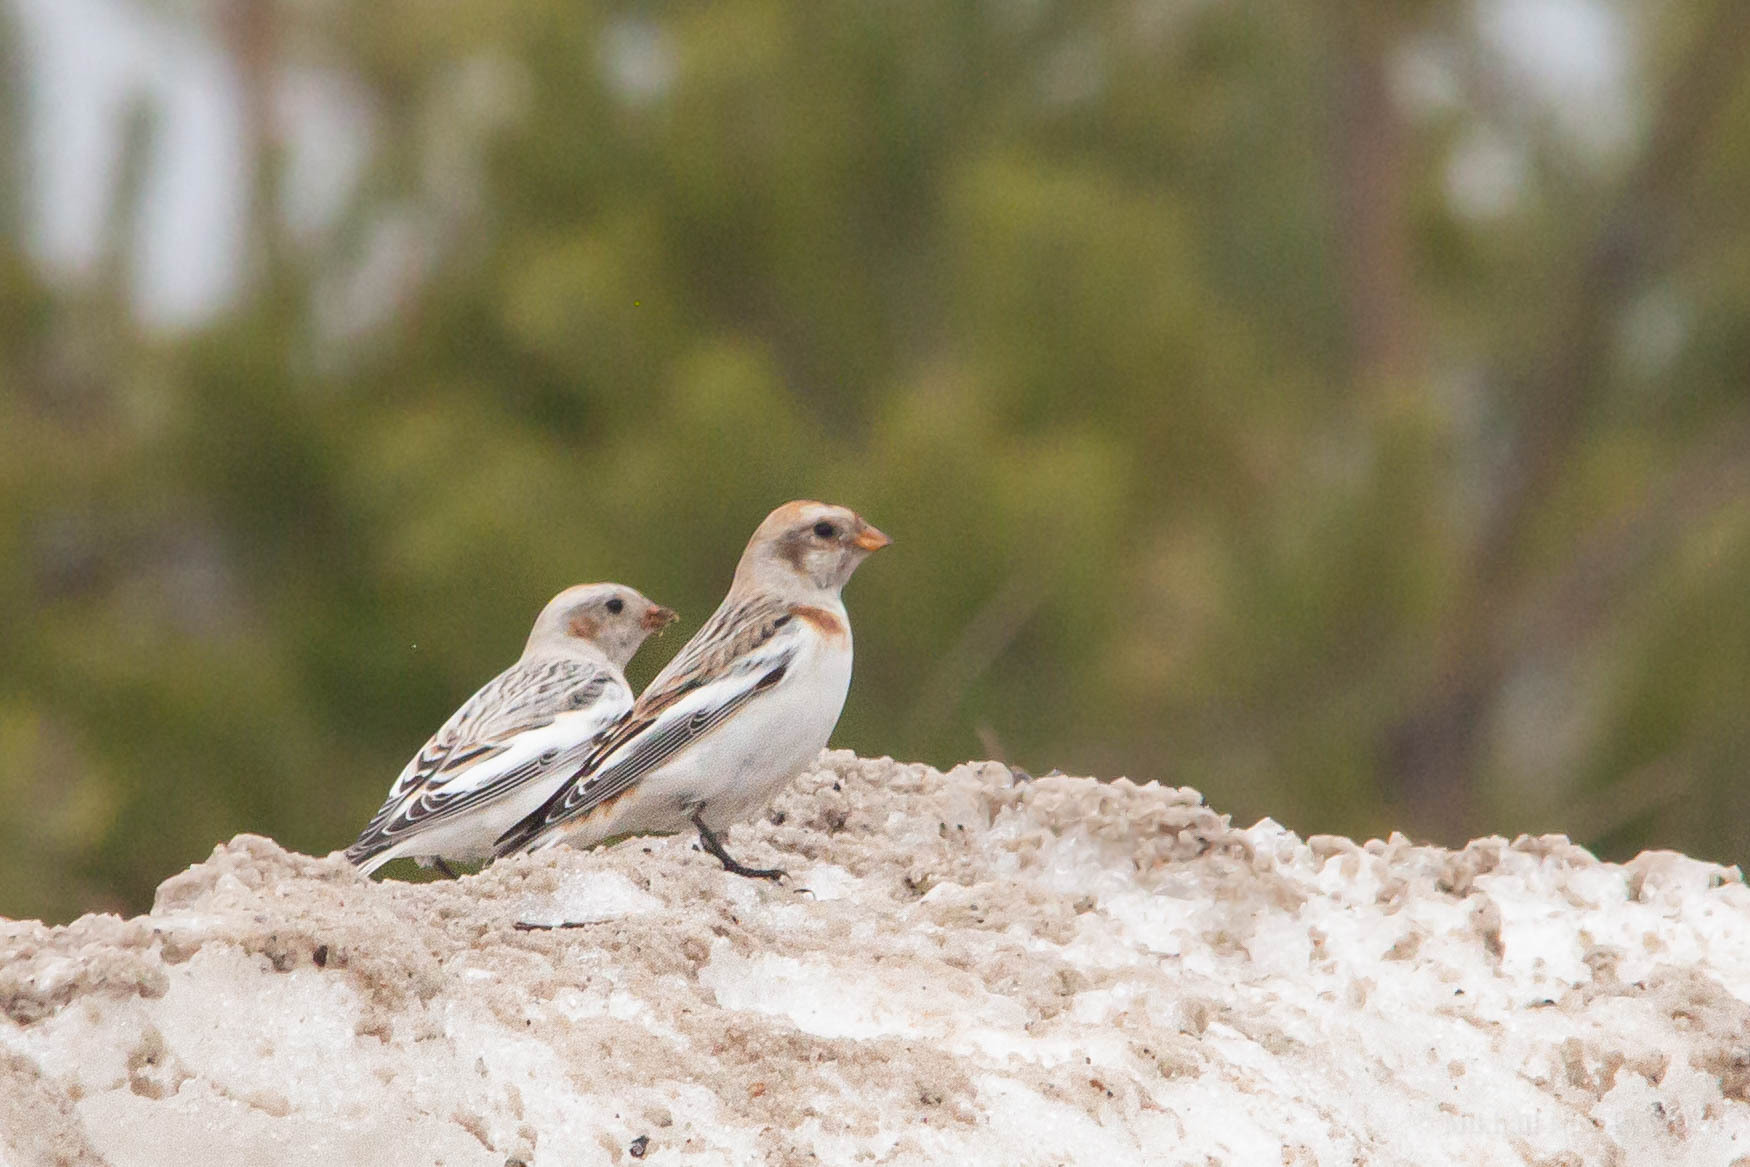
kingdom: Animalia
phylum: Chordata
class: Aves
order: Passeriformes
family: Calcariidae
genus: Plectrophenax
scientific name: Plectrophenax nivalis
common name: Snow bunting
